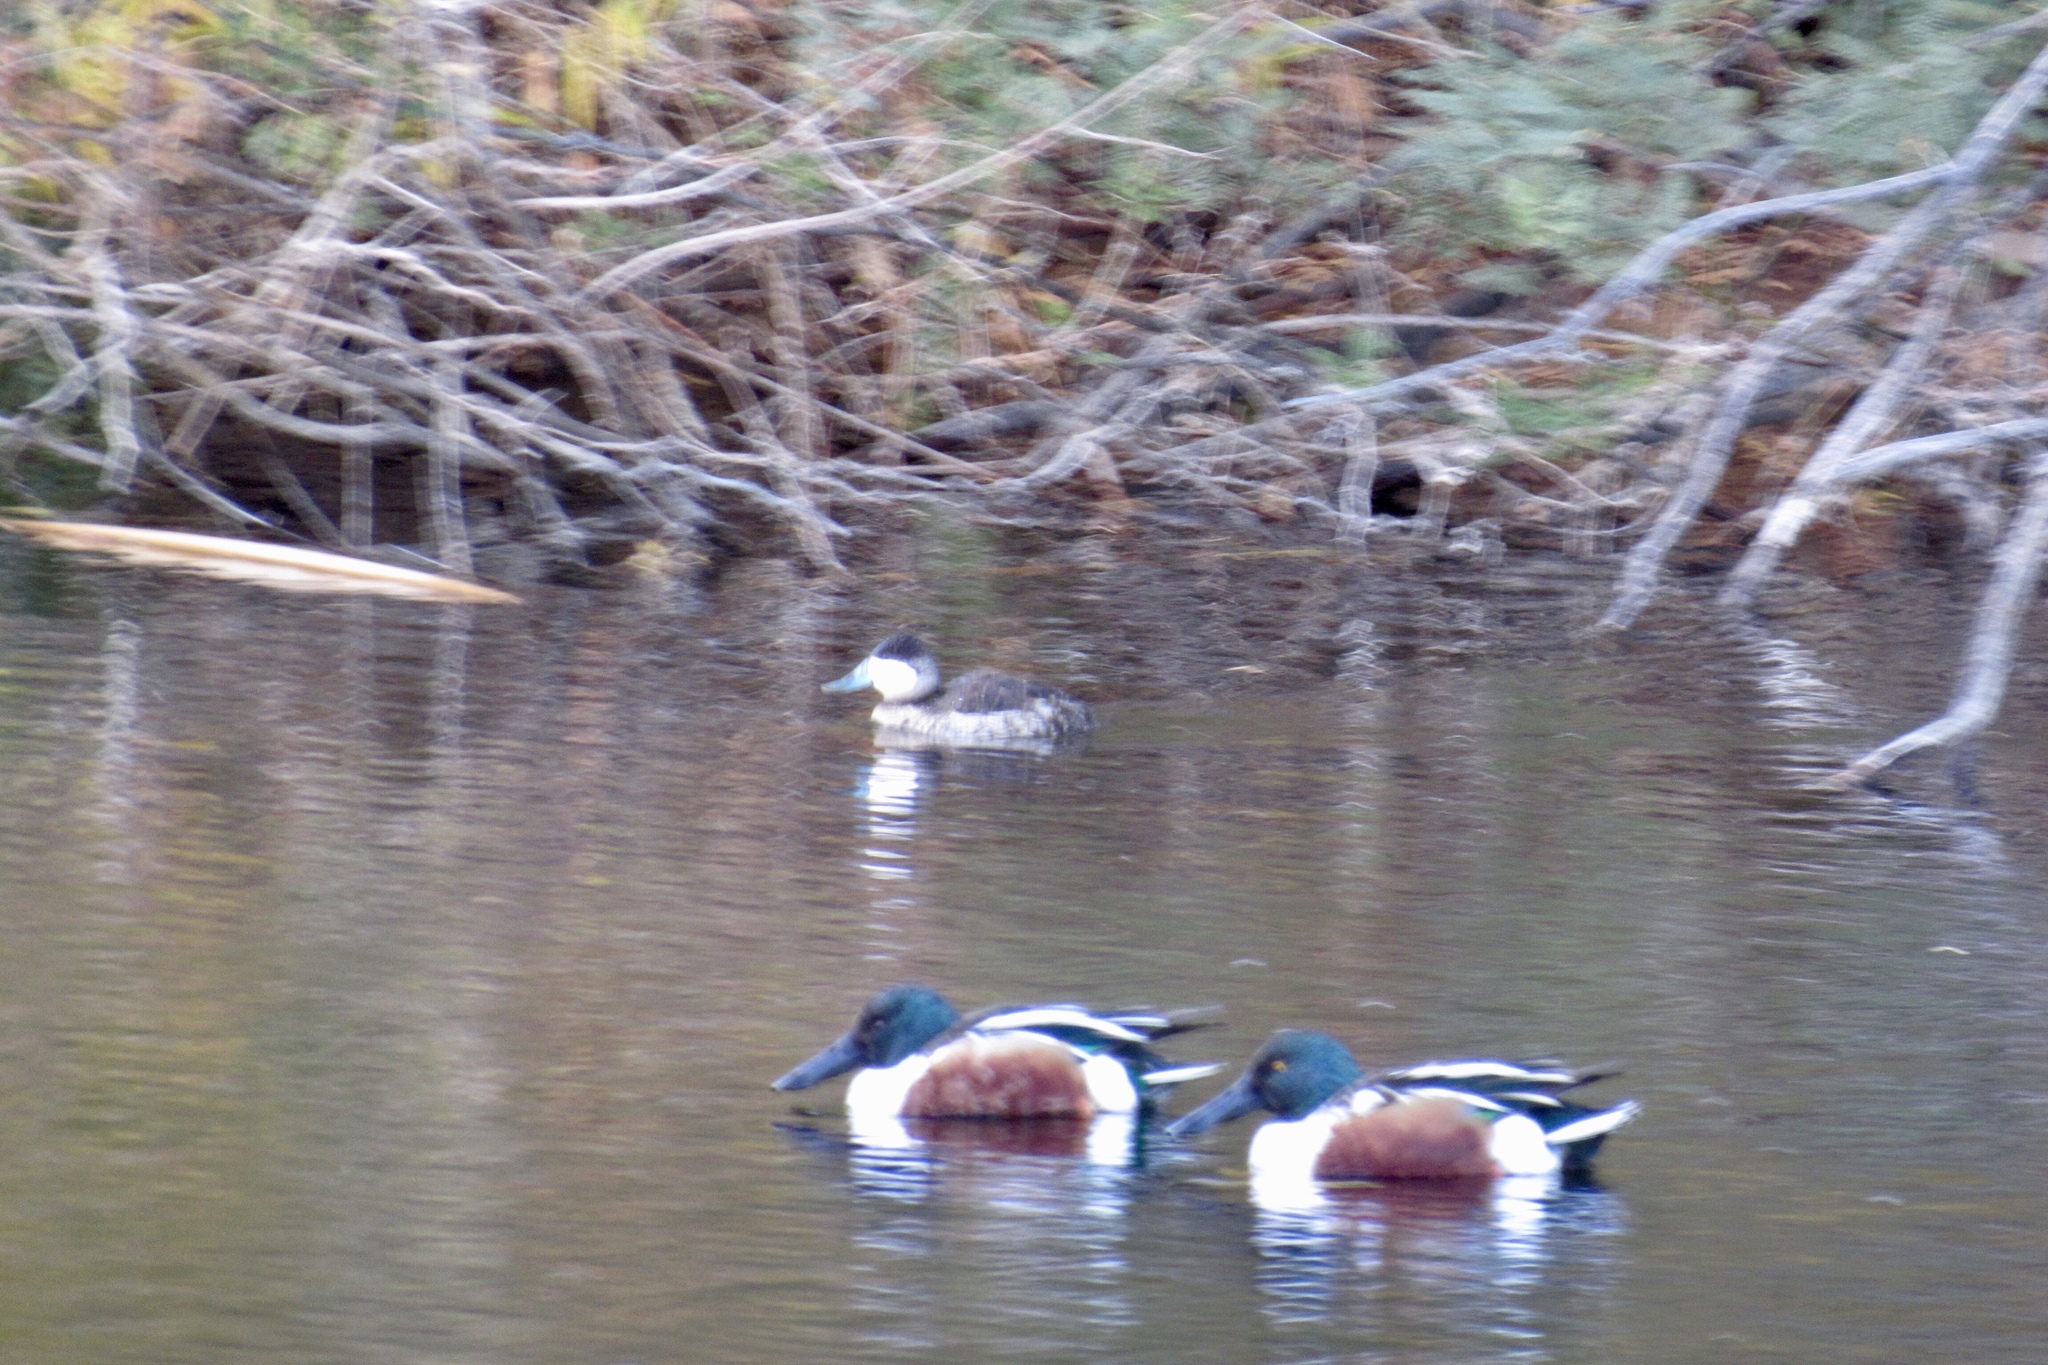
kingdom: Animalia
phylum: Chordata
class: Aves
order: Anseriformes
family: Anatidae
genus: Spatula
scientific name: Spatula clypeata
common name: Northern shoveler
